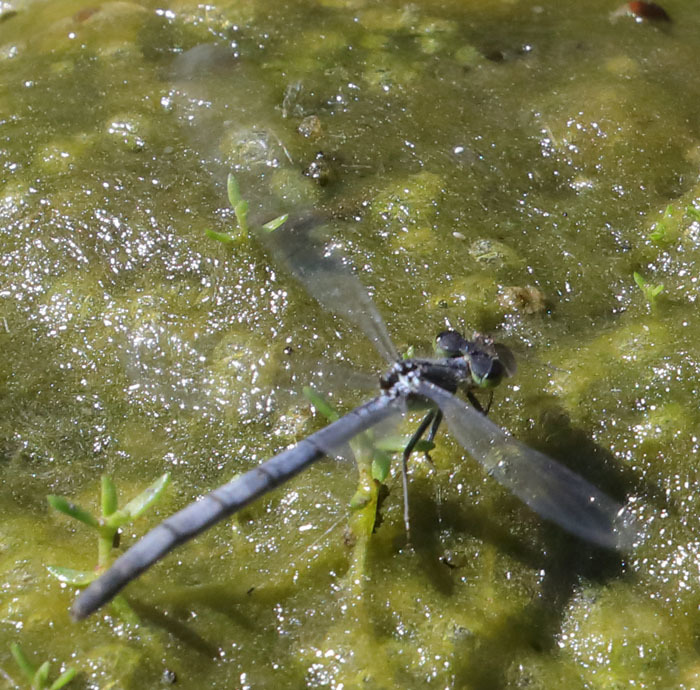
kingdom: Animalia
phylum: Arthropoda
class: Insecta
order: Odonata
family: Coenagrionidae
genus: Ischnura
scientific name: Ischnura perparva
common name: Western forktail
